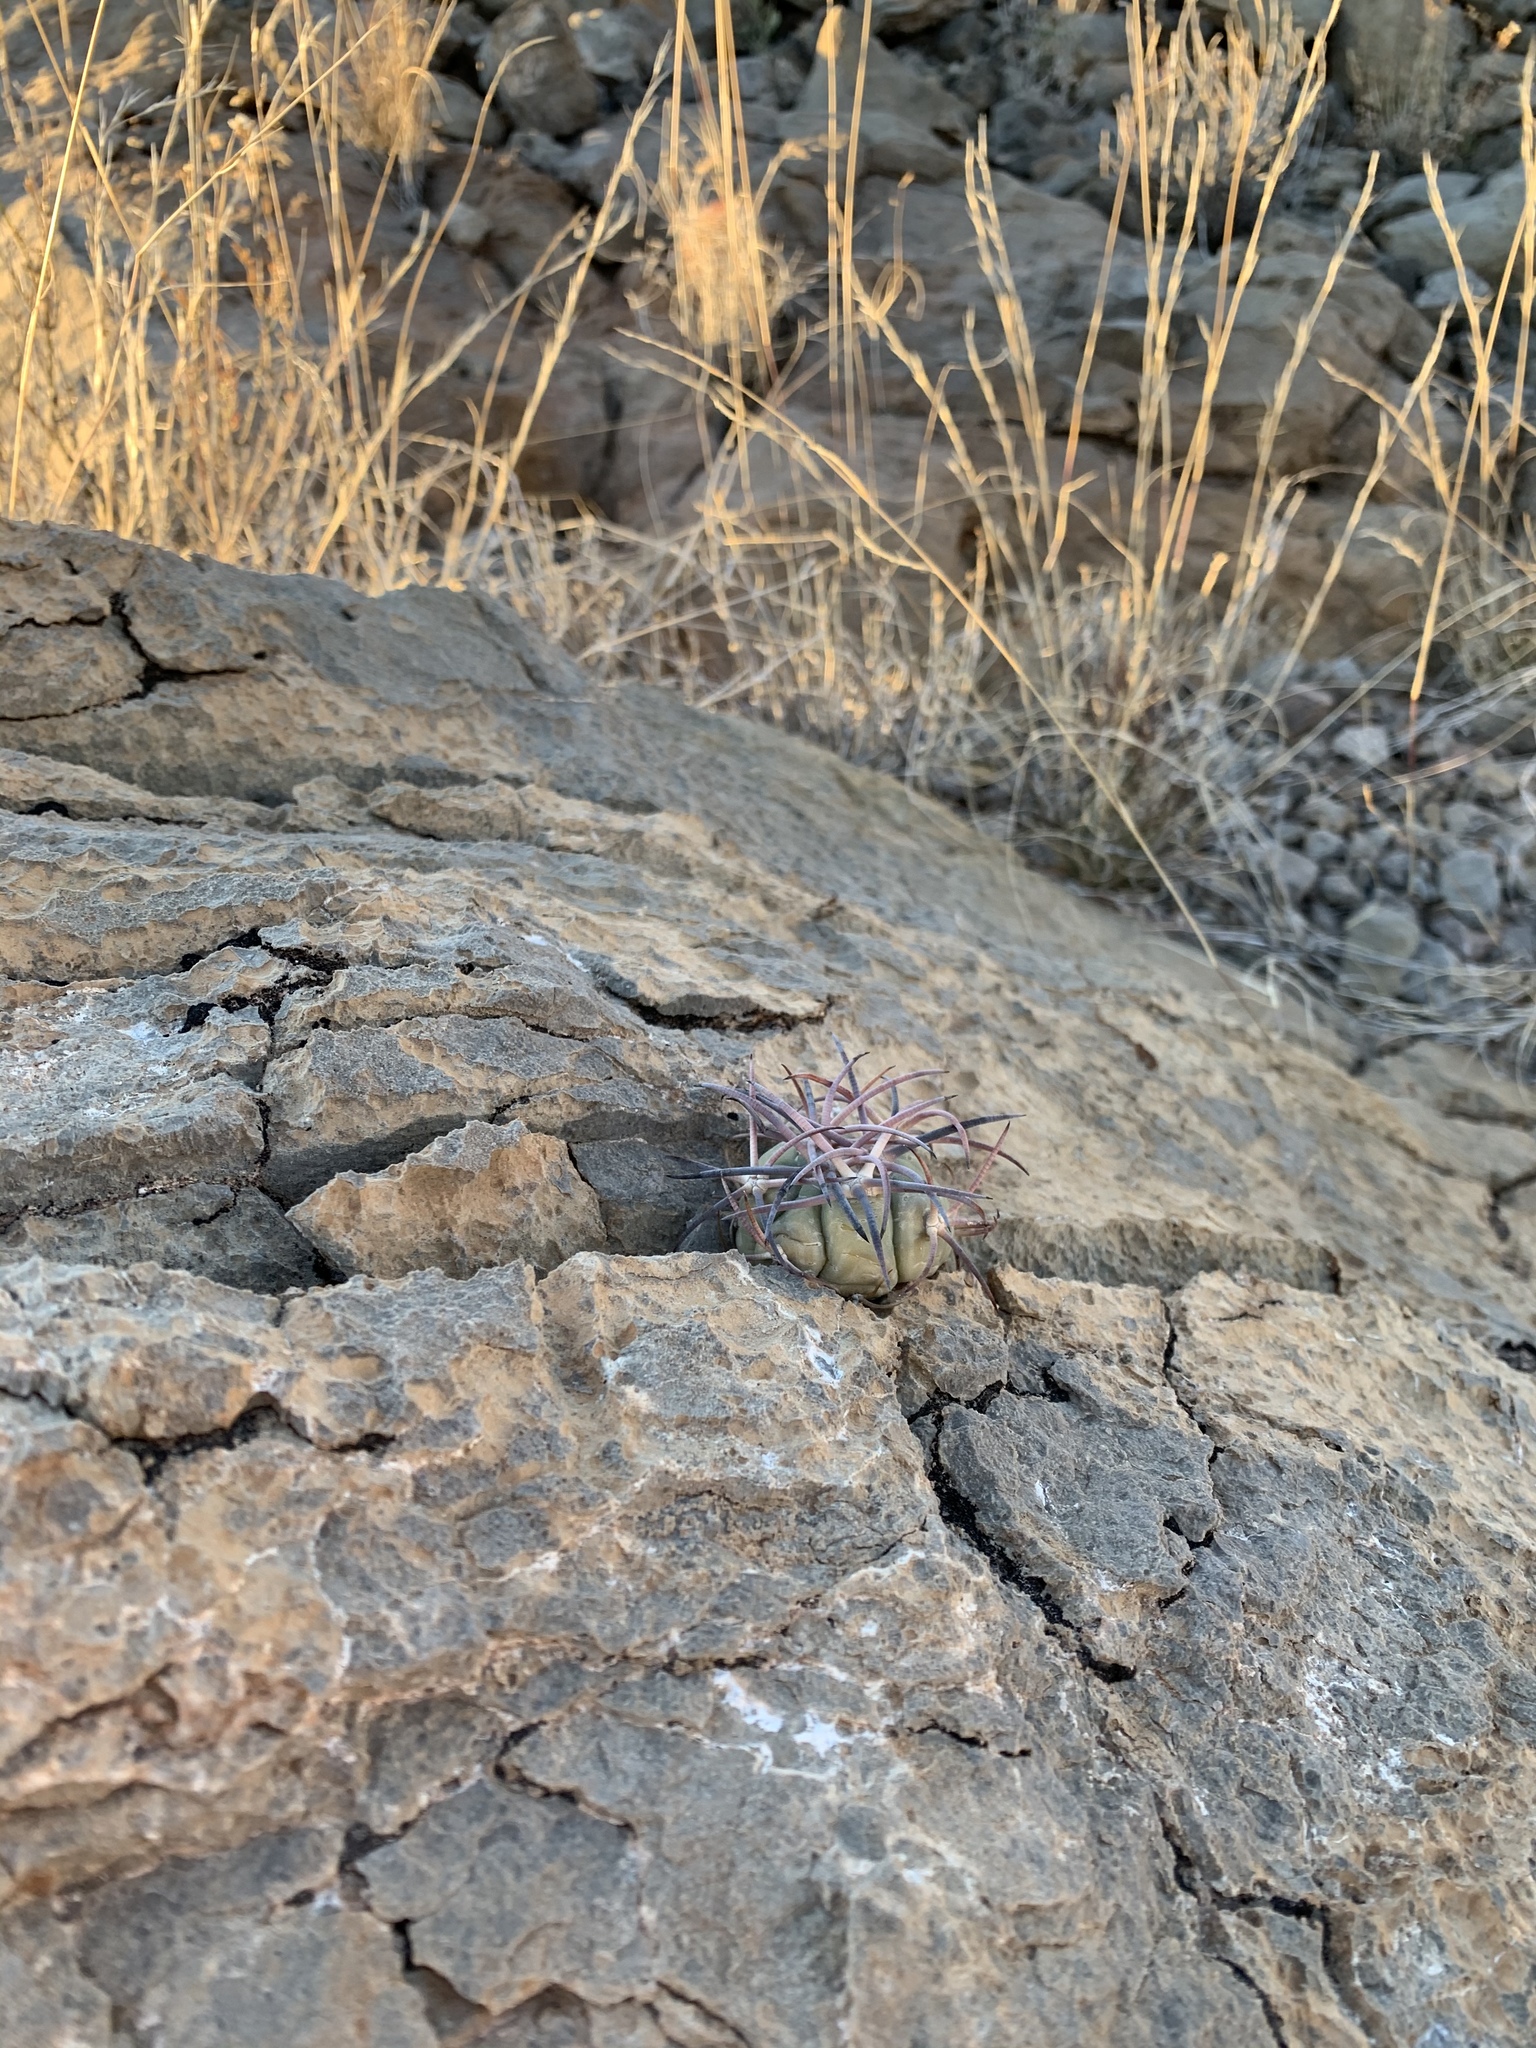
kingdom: Plantae
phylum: Tracheophyta
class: Magnoliopsida
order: Caryophyllales
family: Cactaceae
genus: Echinocactus
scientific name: Echinocactus horizonthalonius
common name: Devilshead
